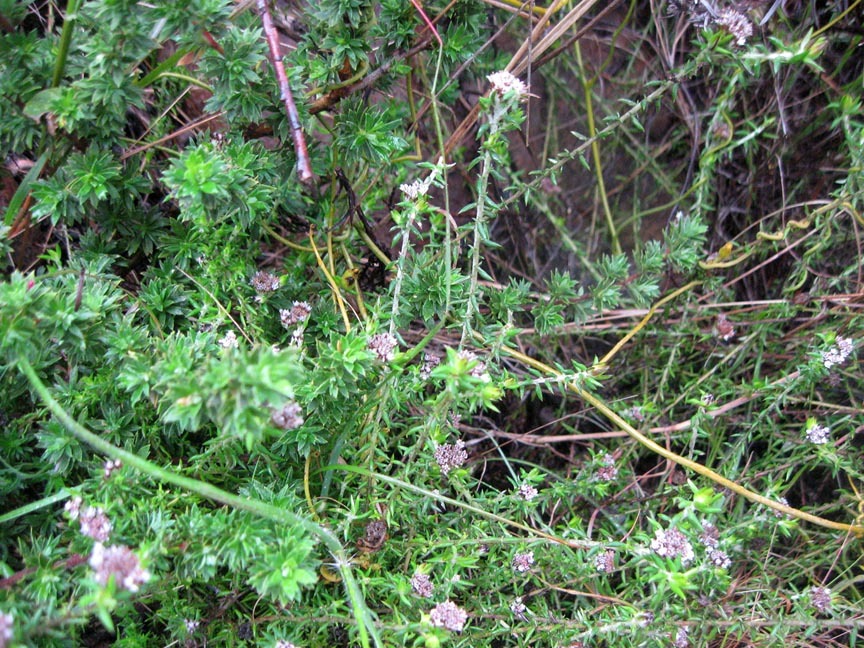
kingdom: Plantae
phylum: Tracheophyta
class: Magnoliopsida
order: Asterales
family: Asteraceae
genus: Metalasia
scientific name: Metalasia divergens
